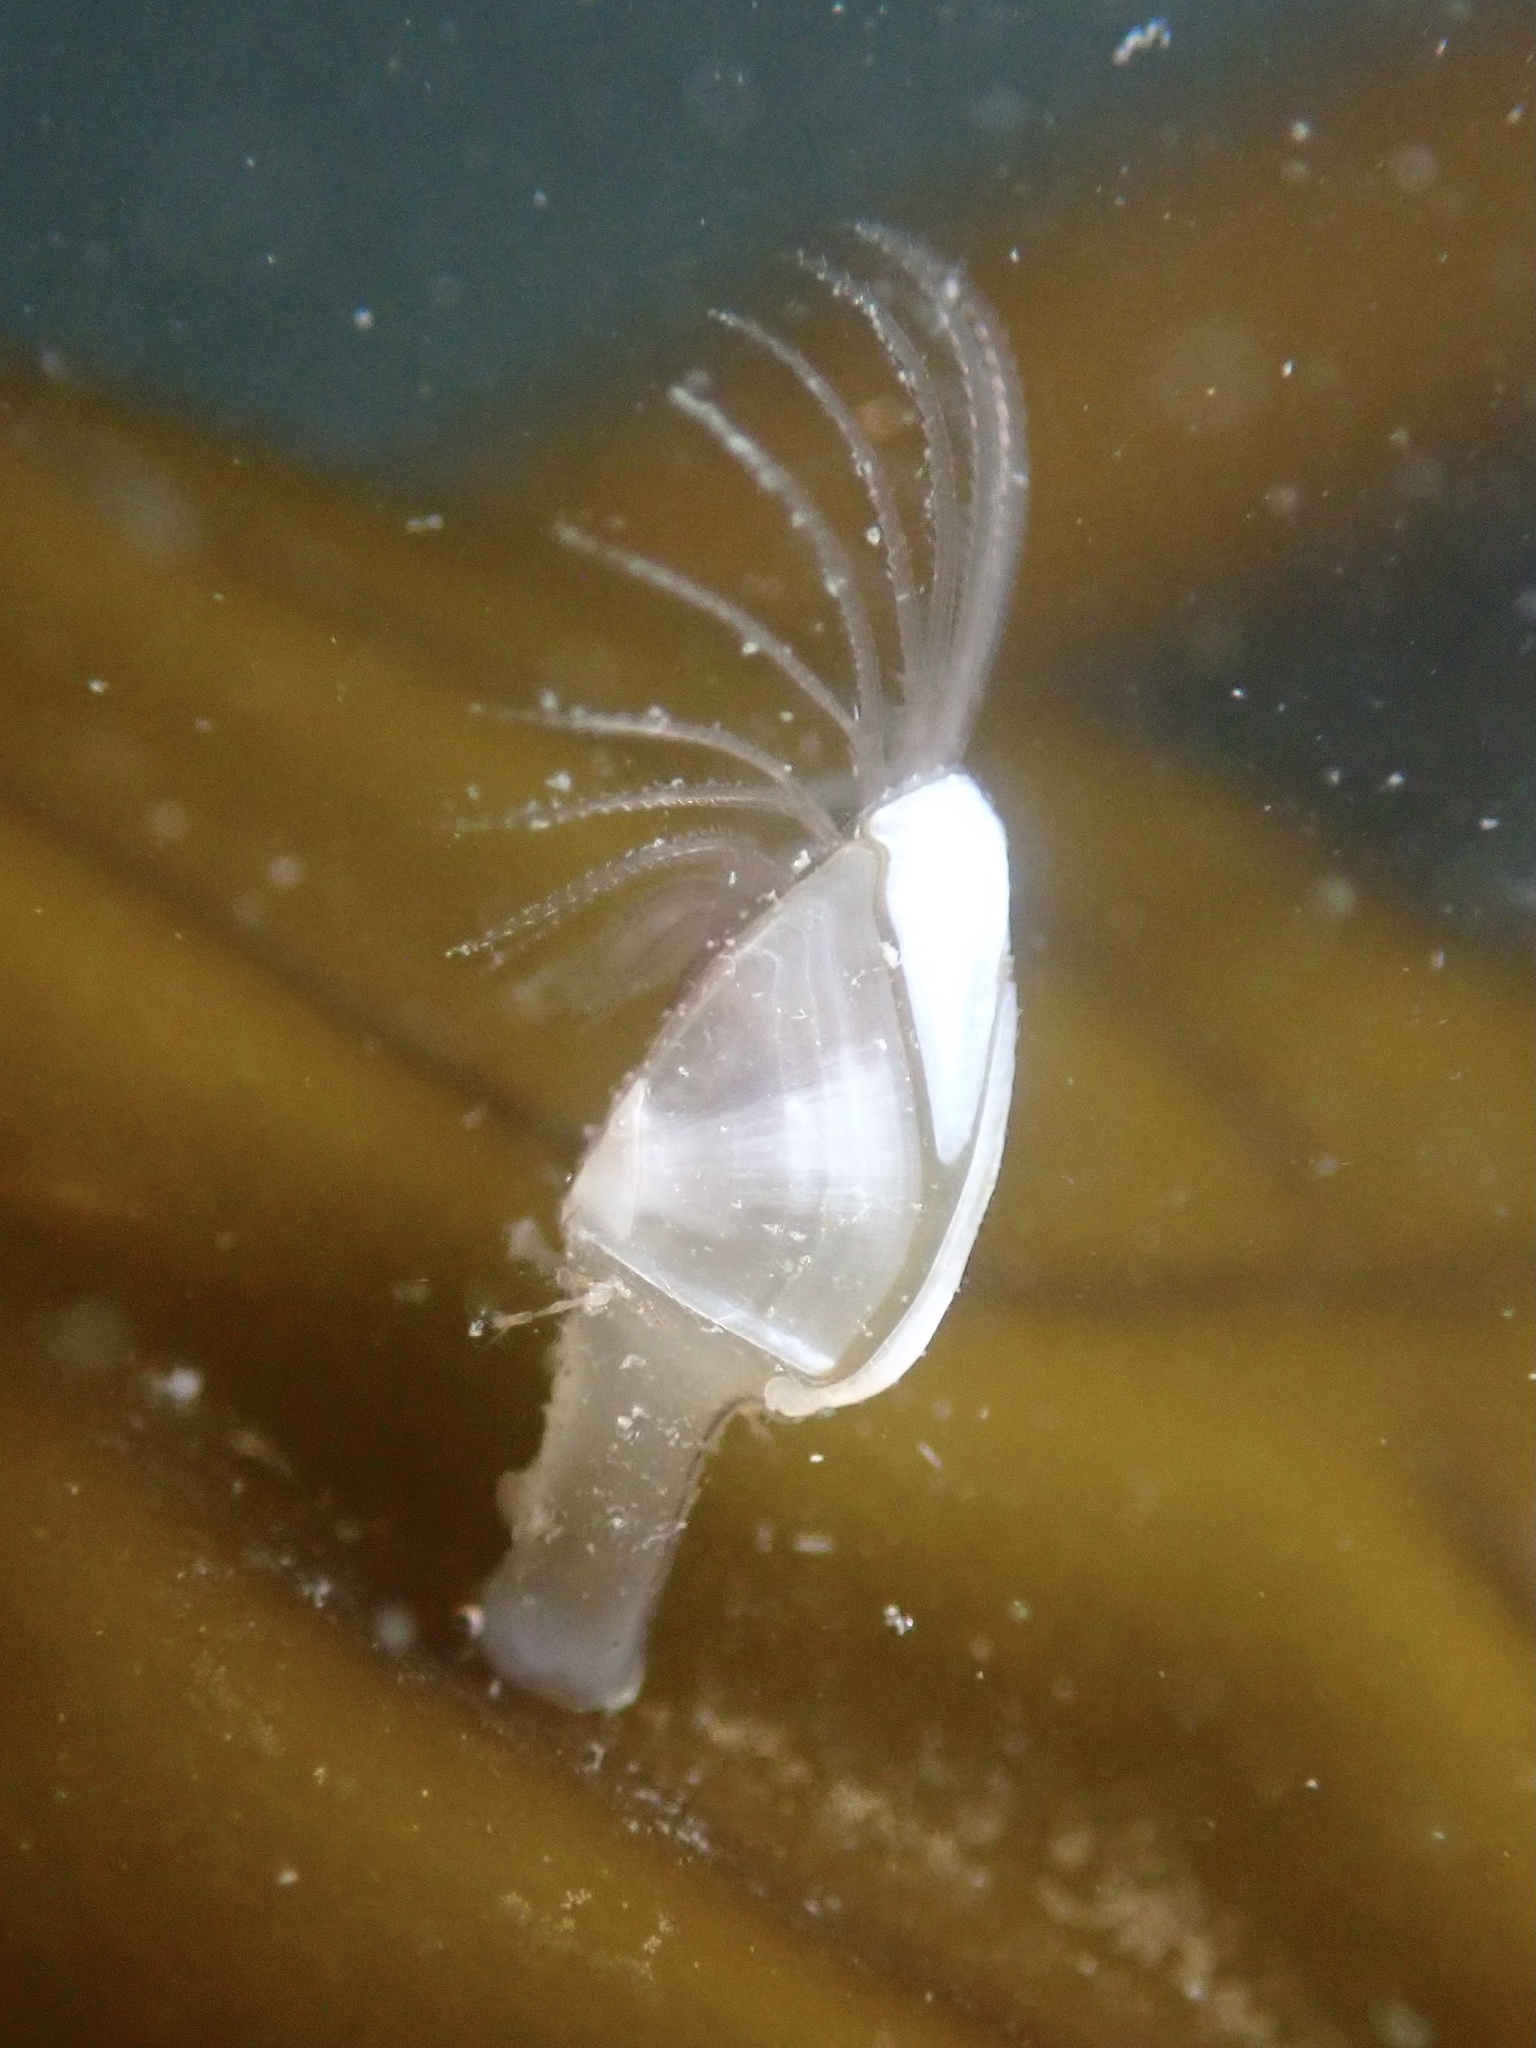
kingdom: Animalia
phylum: Arthropoda
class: Maxillopoda
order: Pedunculata
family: Lepadidae
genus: Lepas
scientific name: Lepas pacifica
